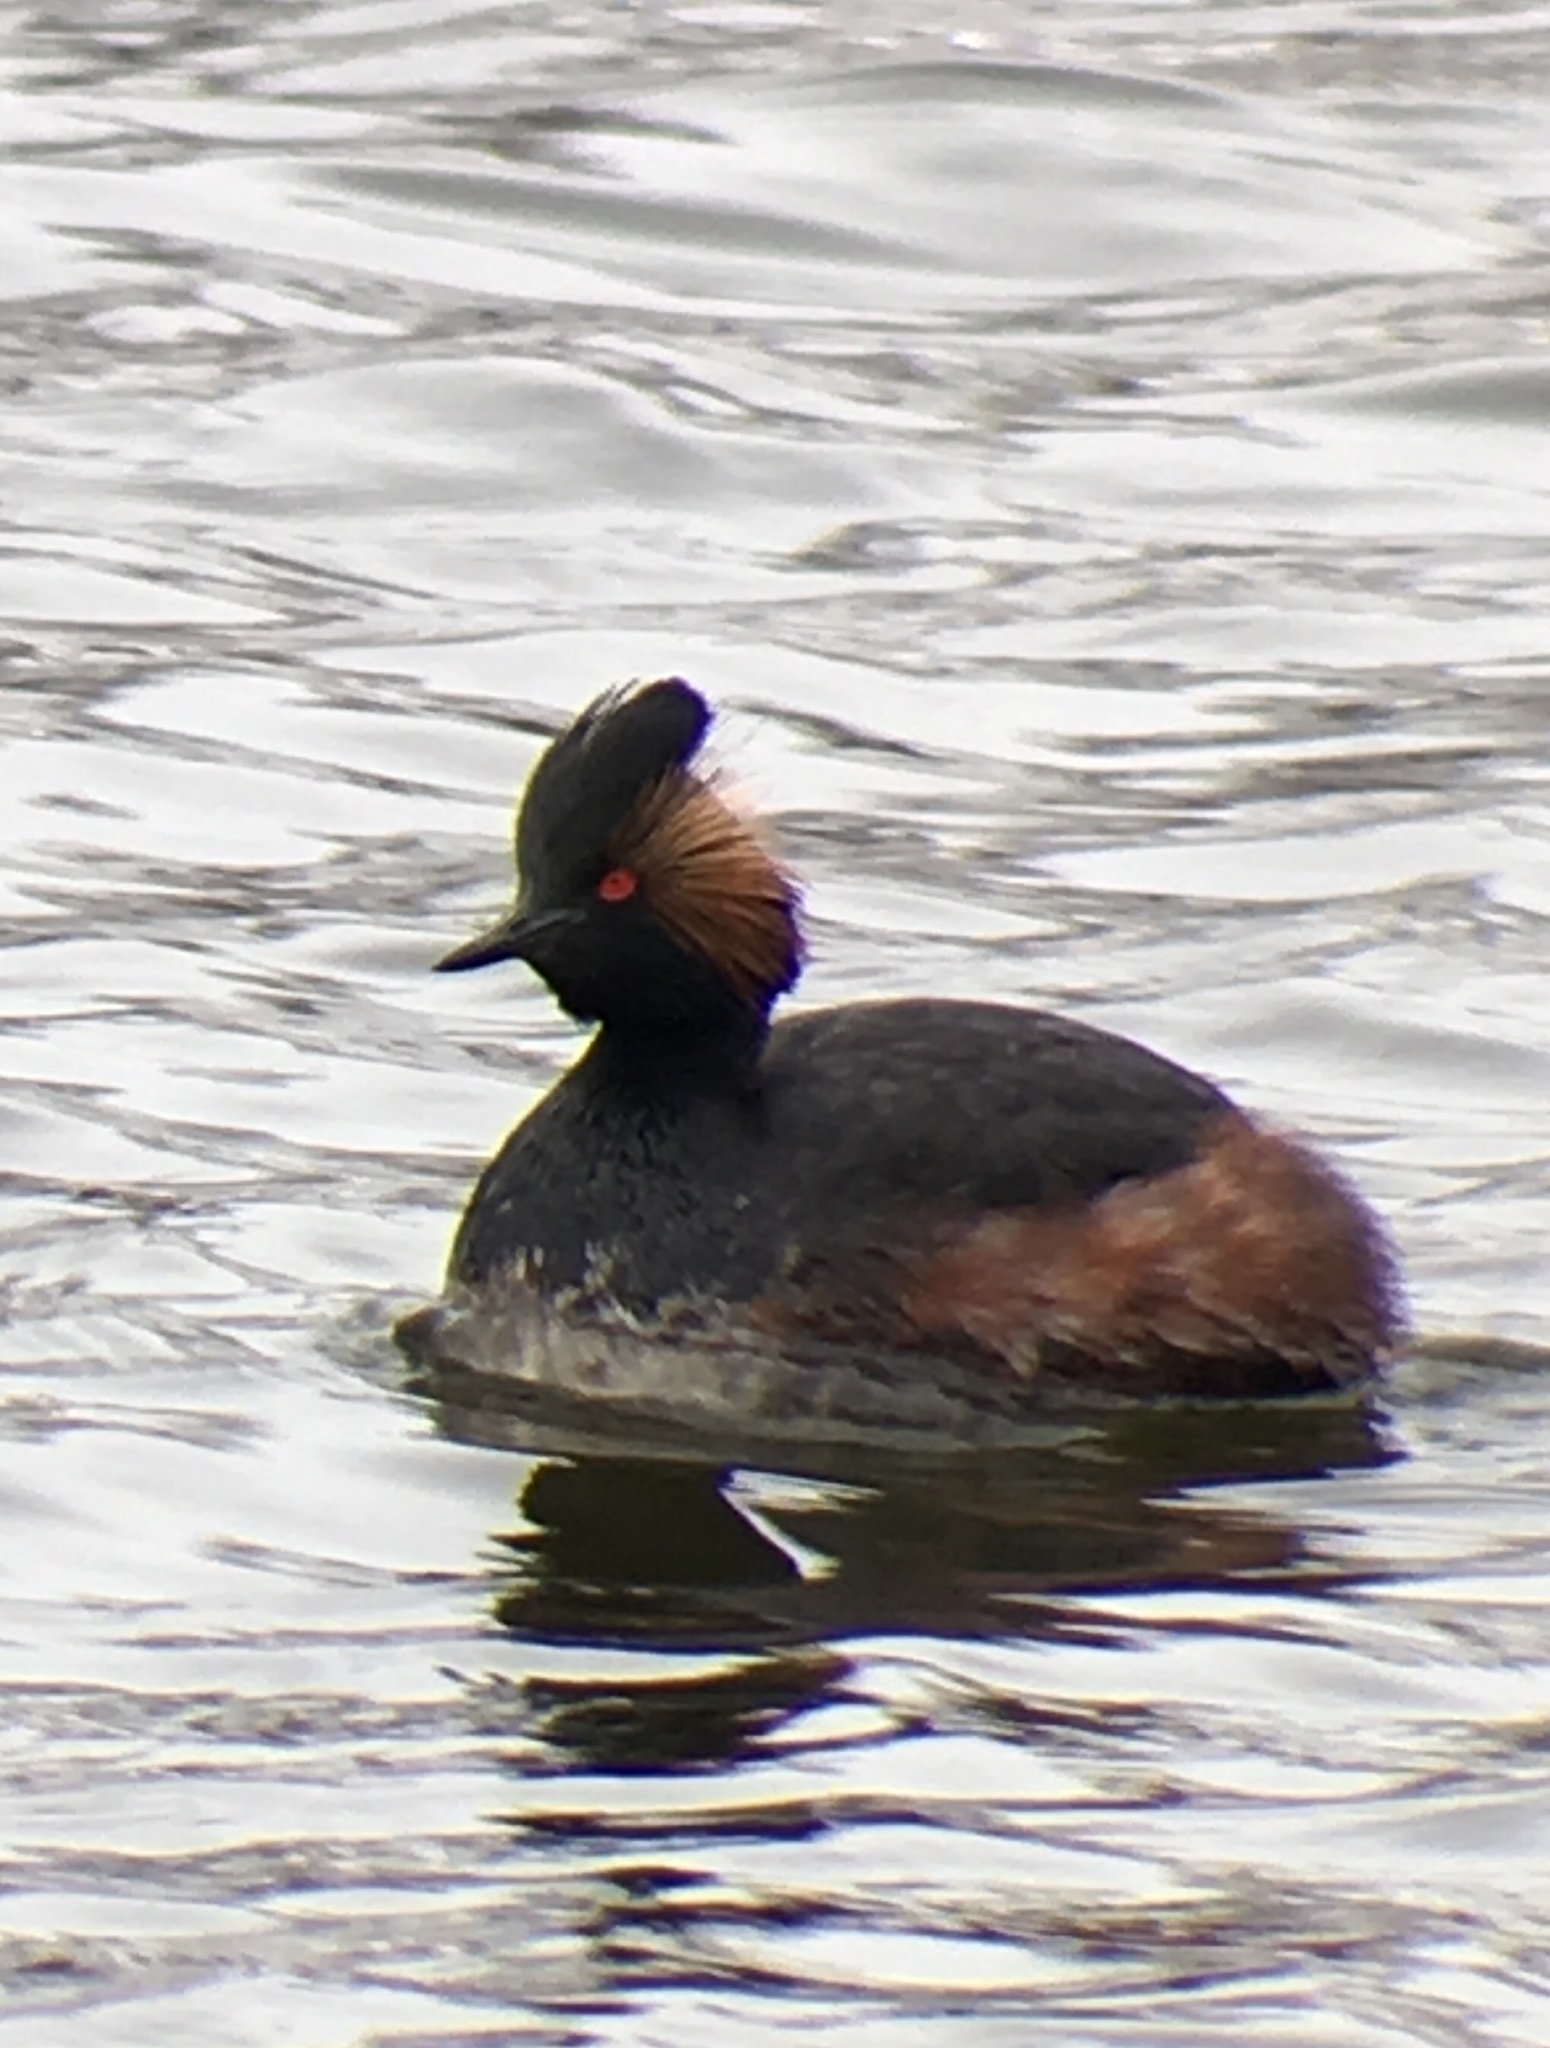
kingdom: Animalia
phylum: Chordata
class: Aves
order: Podicipediformes
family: Podicipedidae
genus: Podiceps
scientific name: Podiceps nigricollis
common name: Black-necked grebe
